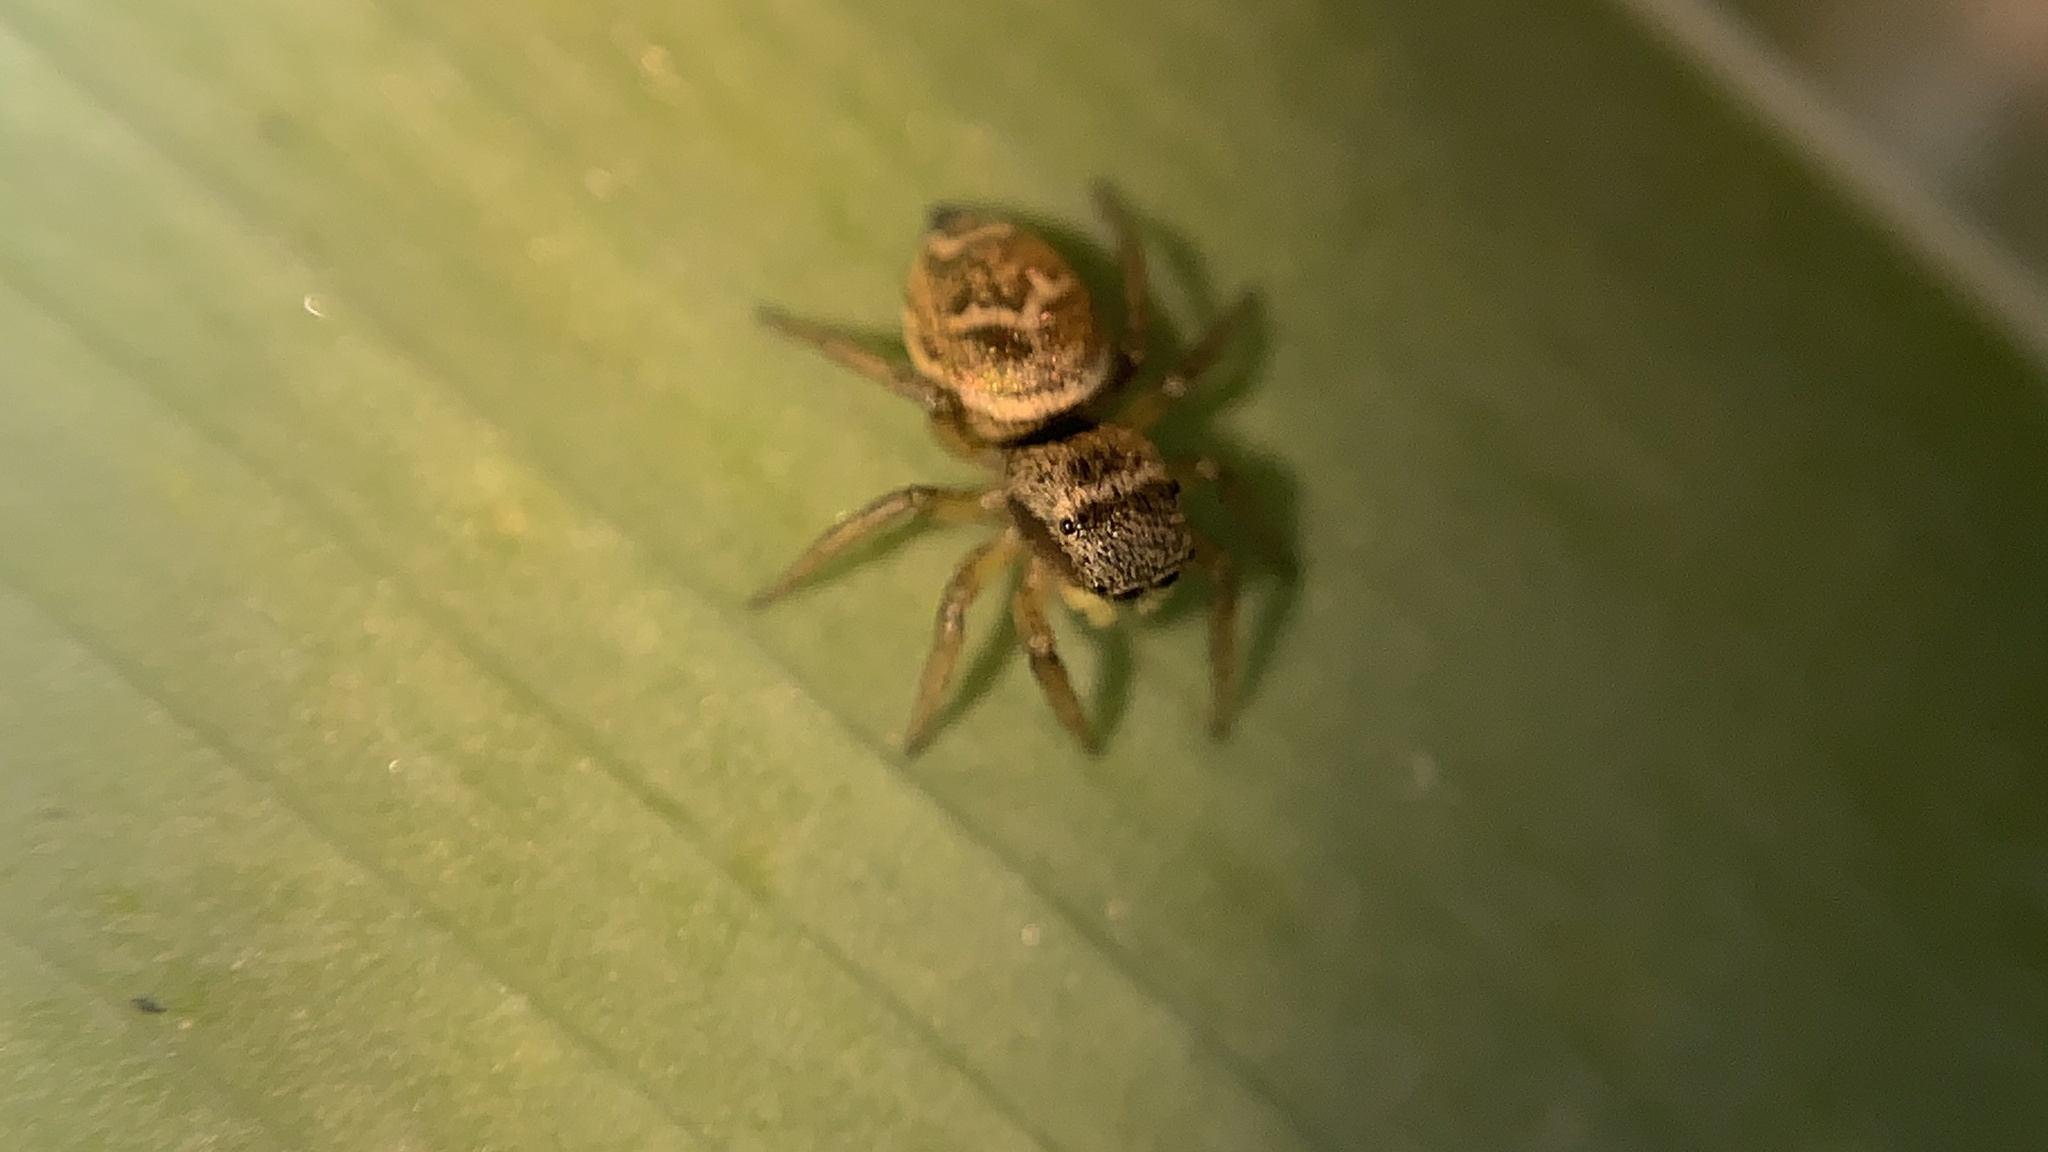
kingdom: Animalia
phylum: Arthropoda
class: Arachnida
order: Araneae
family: Salticidae
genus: Heliophanus
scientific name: Heliophanus tribulosus
